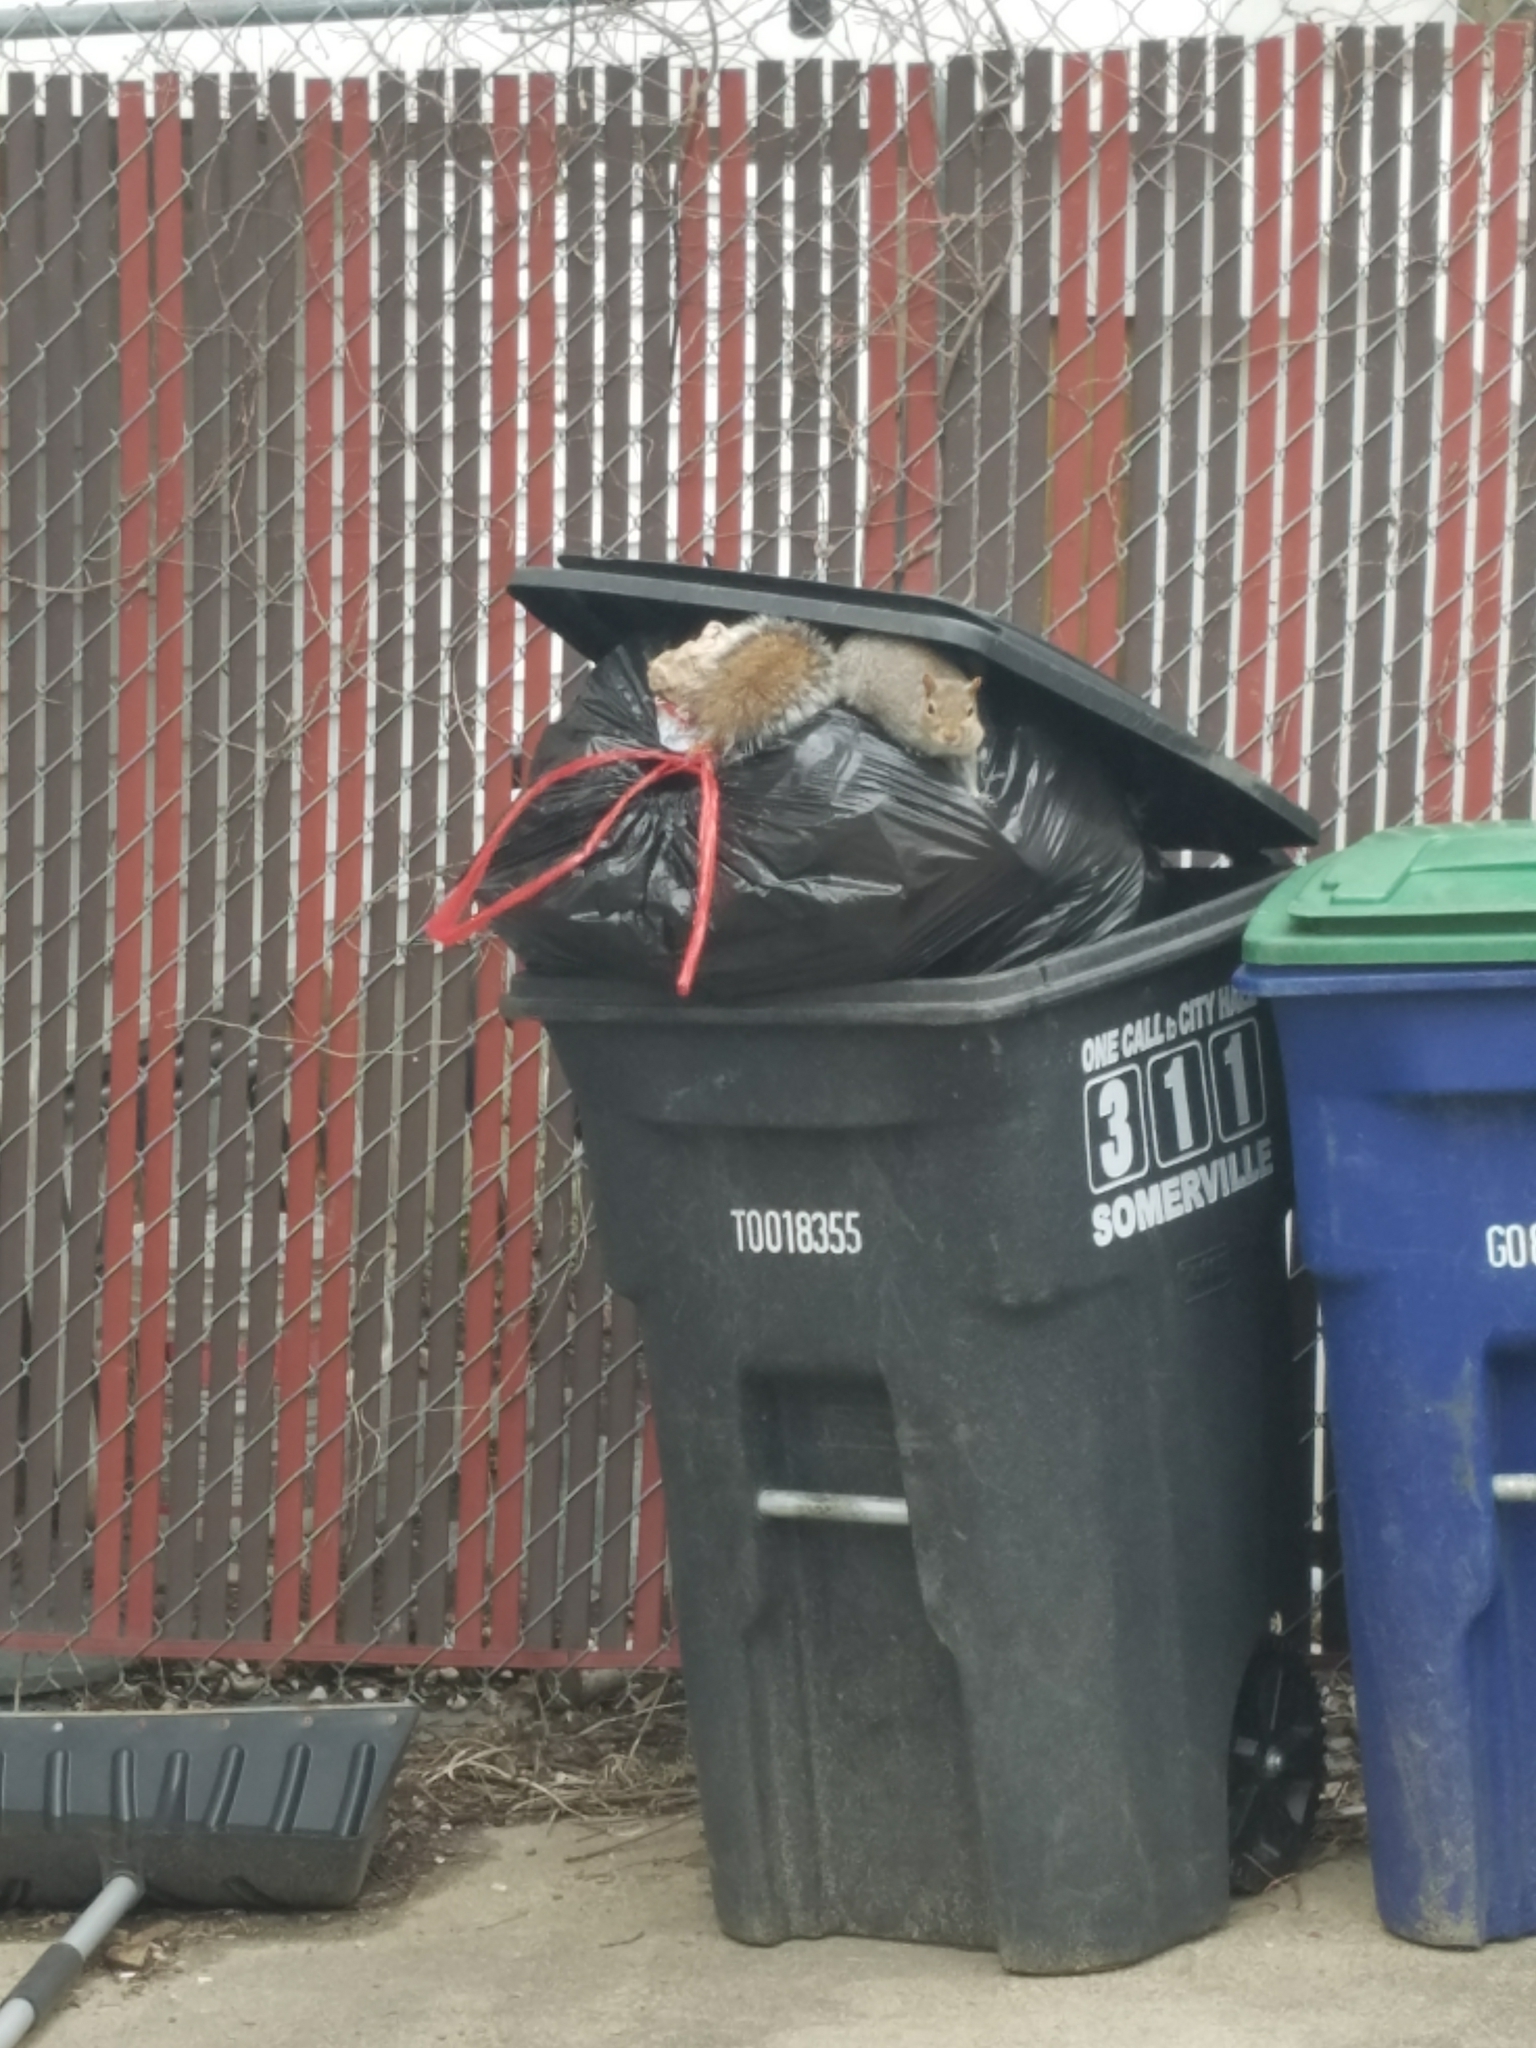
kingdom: Animalia
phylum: Chordata
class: Mammalia
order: Rodentia
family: Sciuridae
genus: Sciurus
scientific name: Sciurus carolinensis
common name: Eastern gray squirrel
